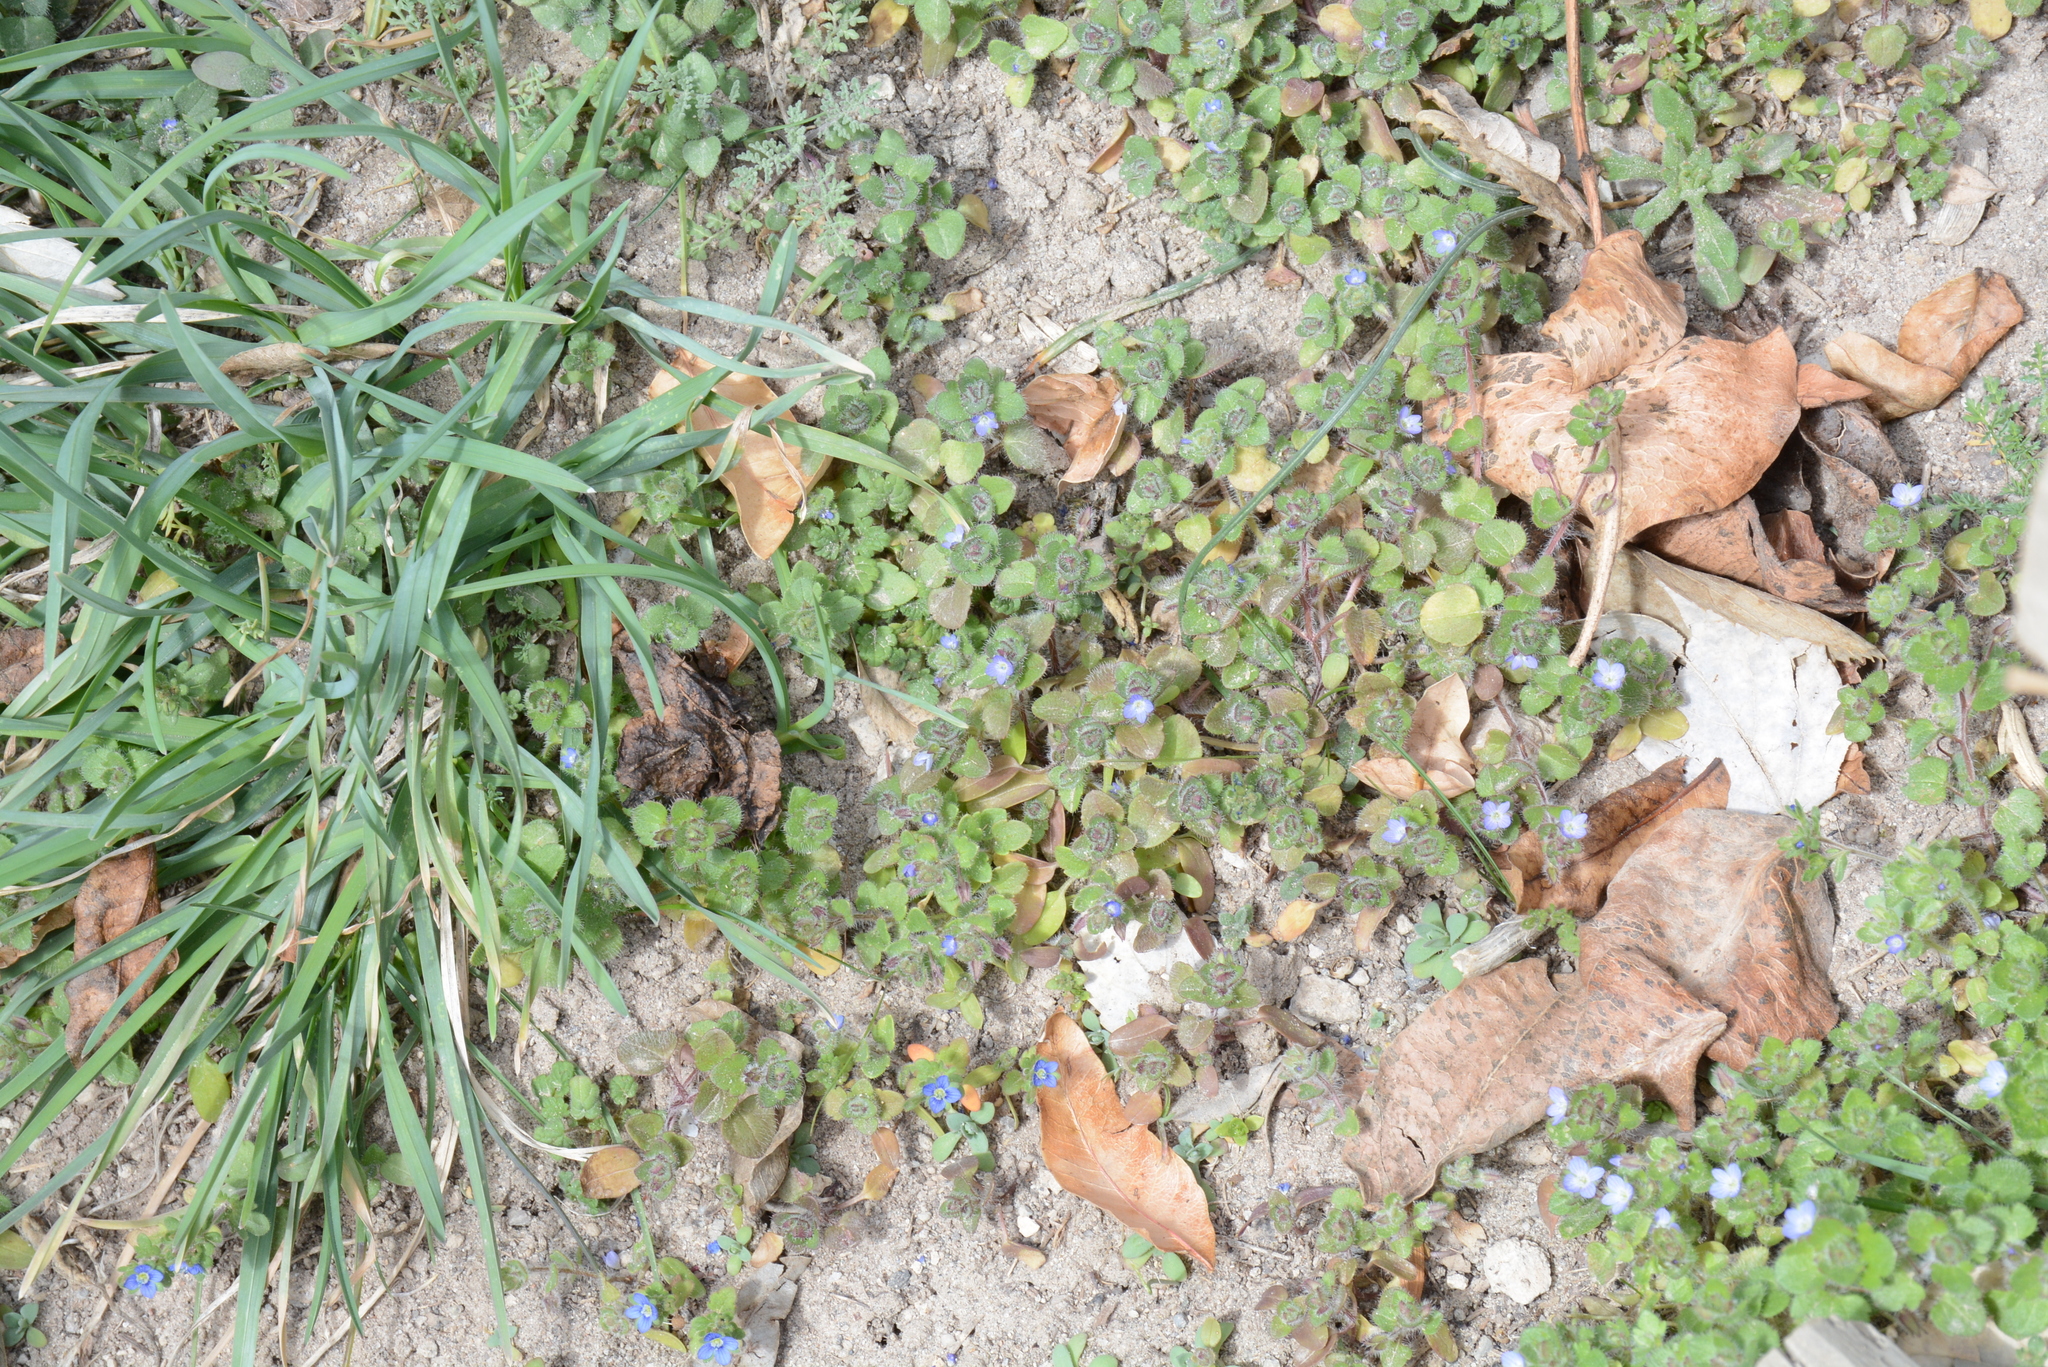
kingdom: Plantae
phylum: Tracheophyta
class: Magnoliopsida
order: Lamiales
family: Plantaginaceae
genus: Veronica
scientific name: Veronica hederifolia
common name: Ivy-leaved speedwell
